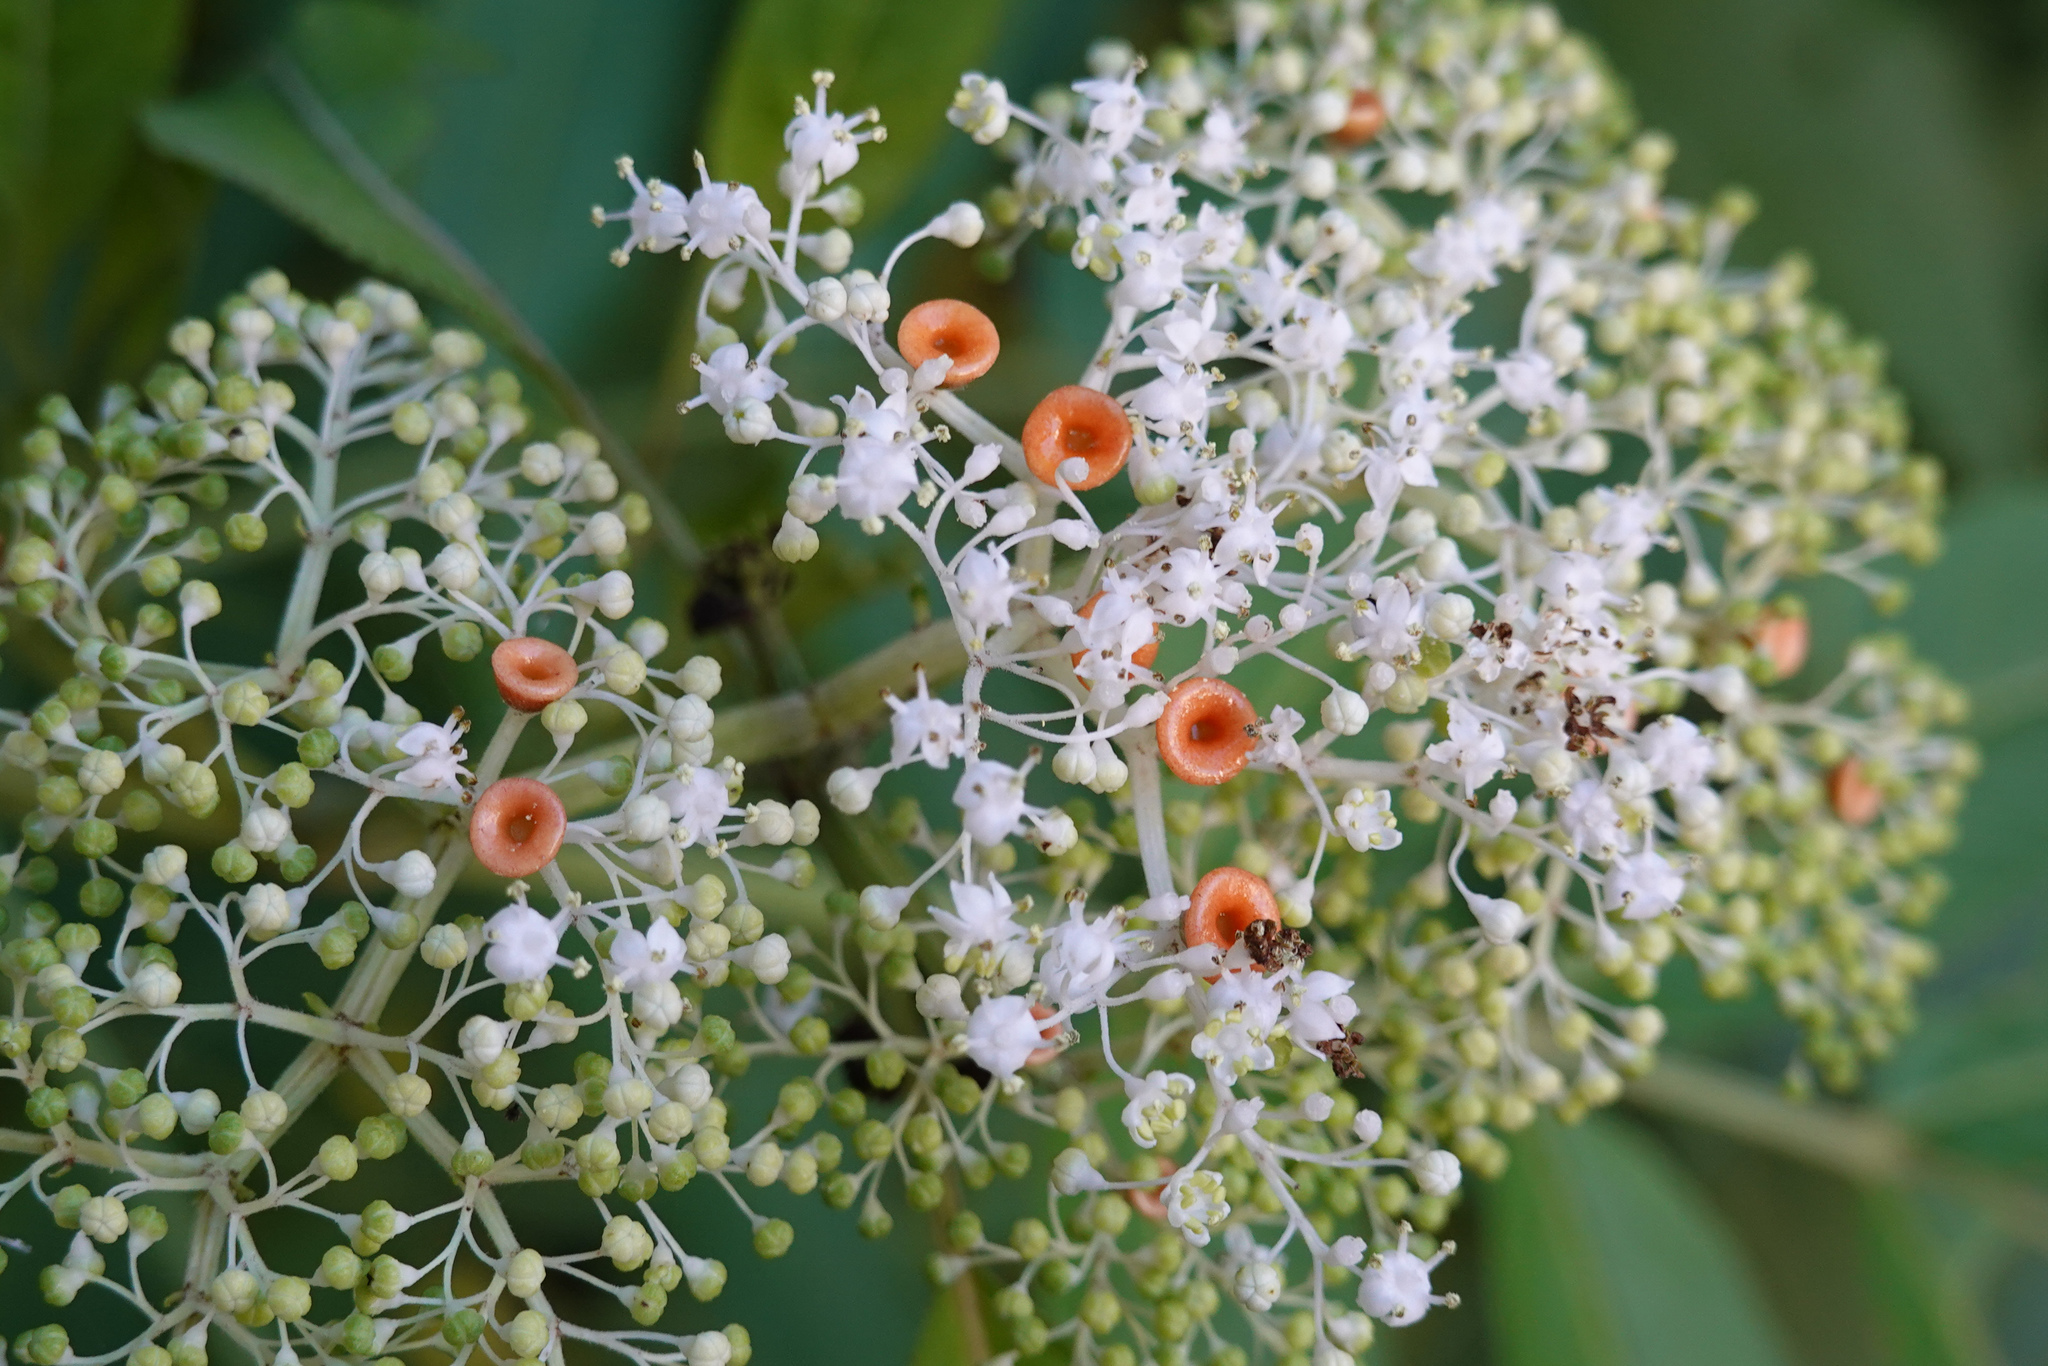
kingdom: Plantae
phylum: Tracheophyta
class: Magnoliopsida
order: Dipsacales
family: Viburnaceae
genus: Sambucus
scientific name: Sambucus javanica
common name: Chinese elder
